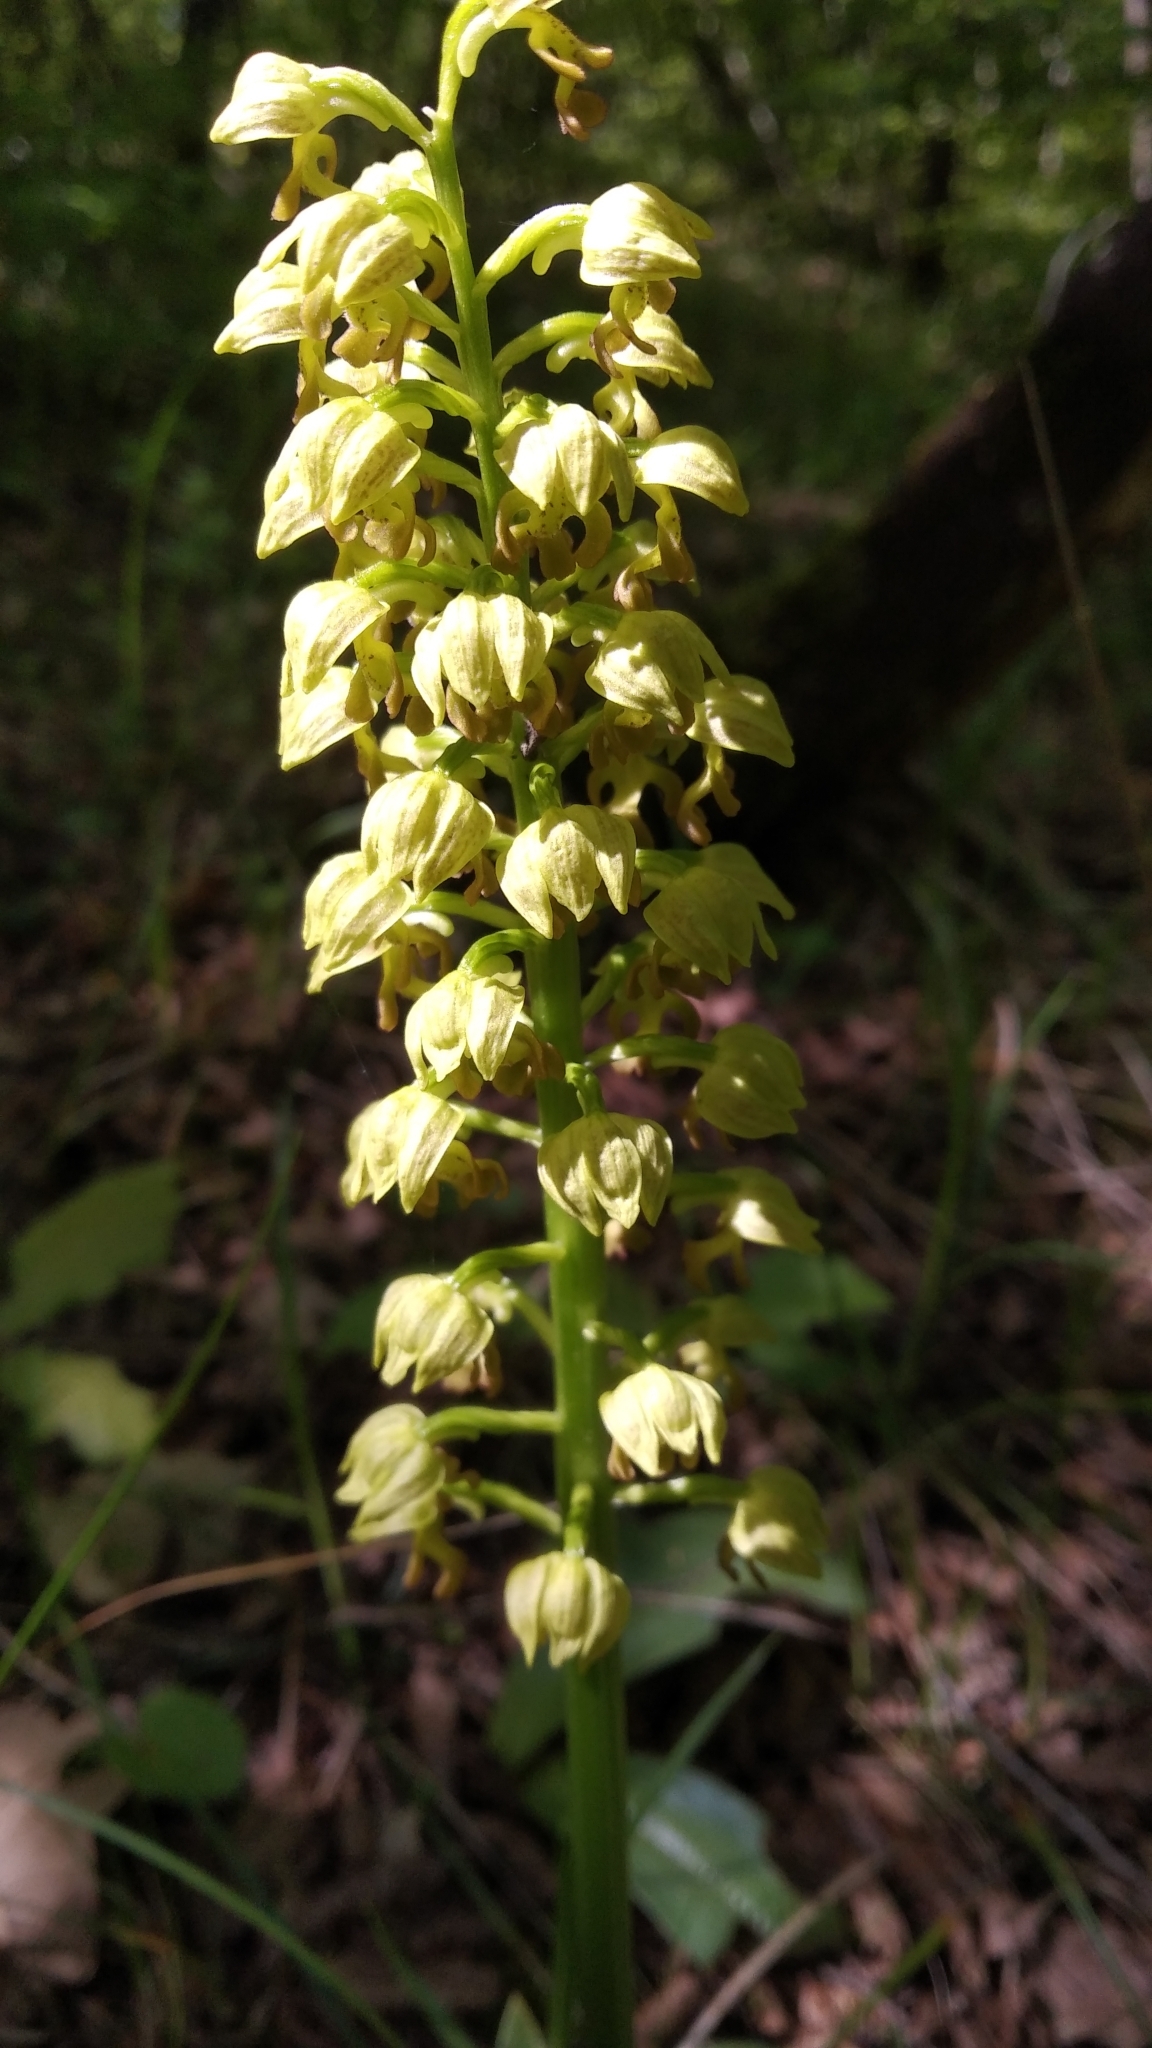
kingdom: Plantae
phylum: Tracheophyta
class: Liliopsida
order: Asparagales
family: Orchidaceae
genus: Orchis
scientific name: Orchis punctulata
